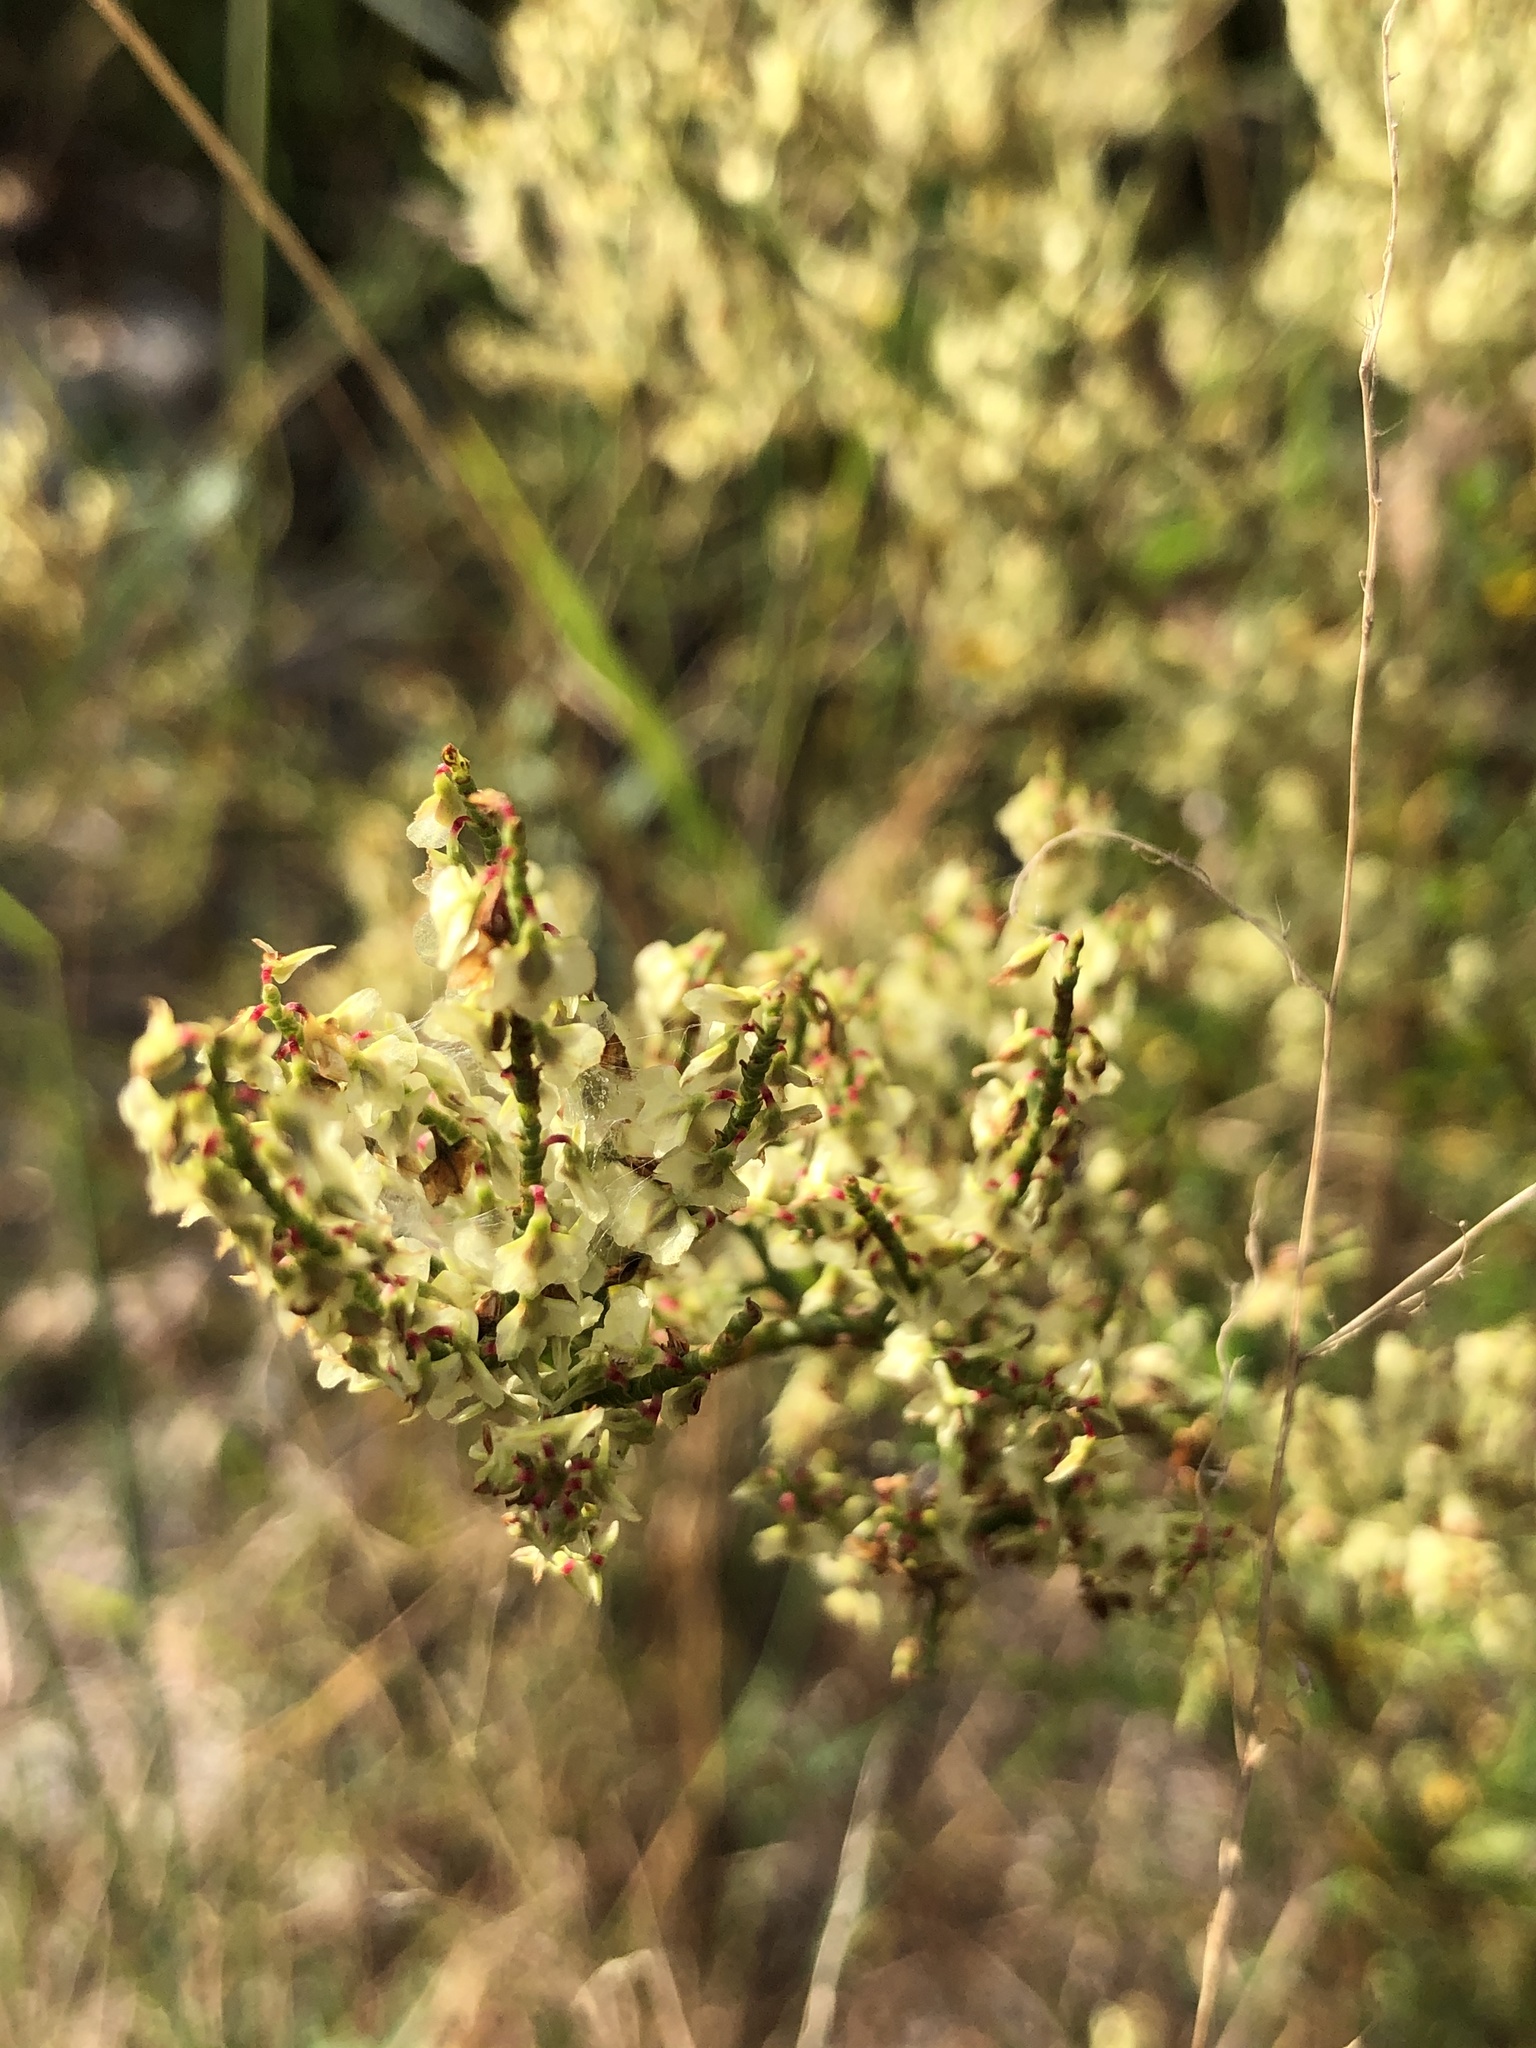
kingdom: Plantae
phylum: Tracheophyta
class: Magnoliopsida
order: Caryophyllales
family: Polygonaceae
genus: Polygonella
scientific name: Polygonella polygama
